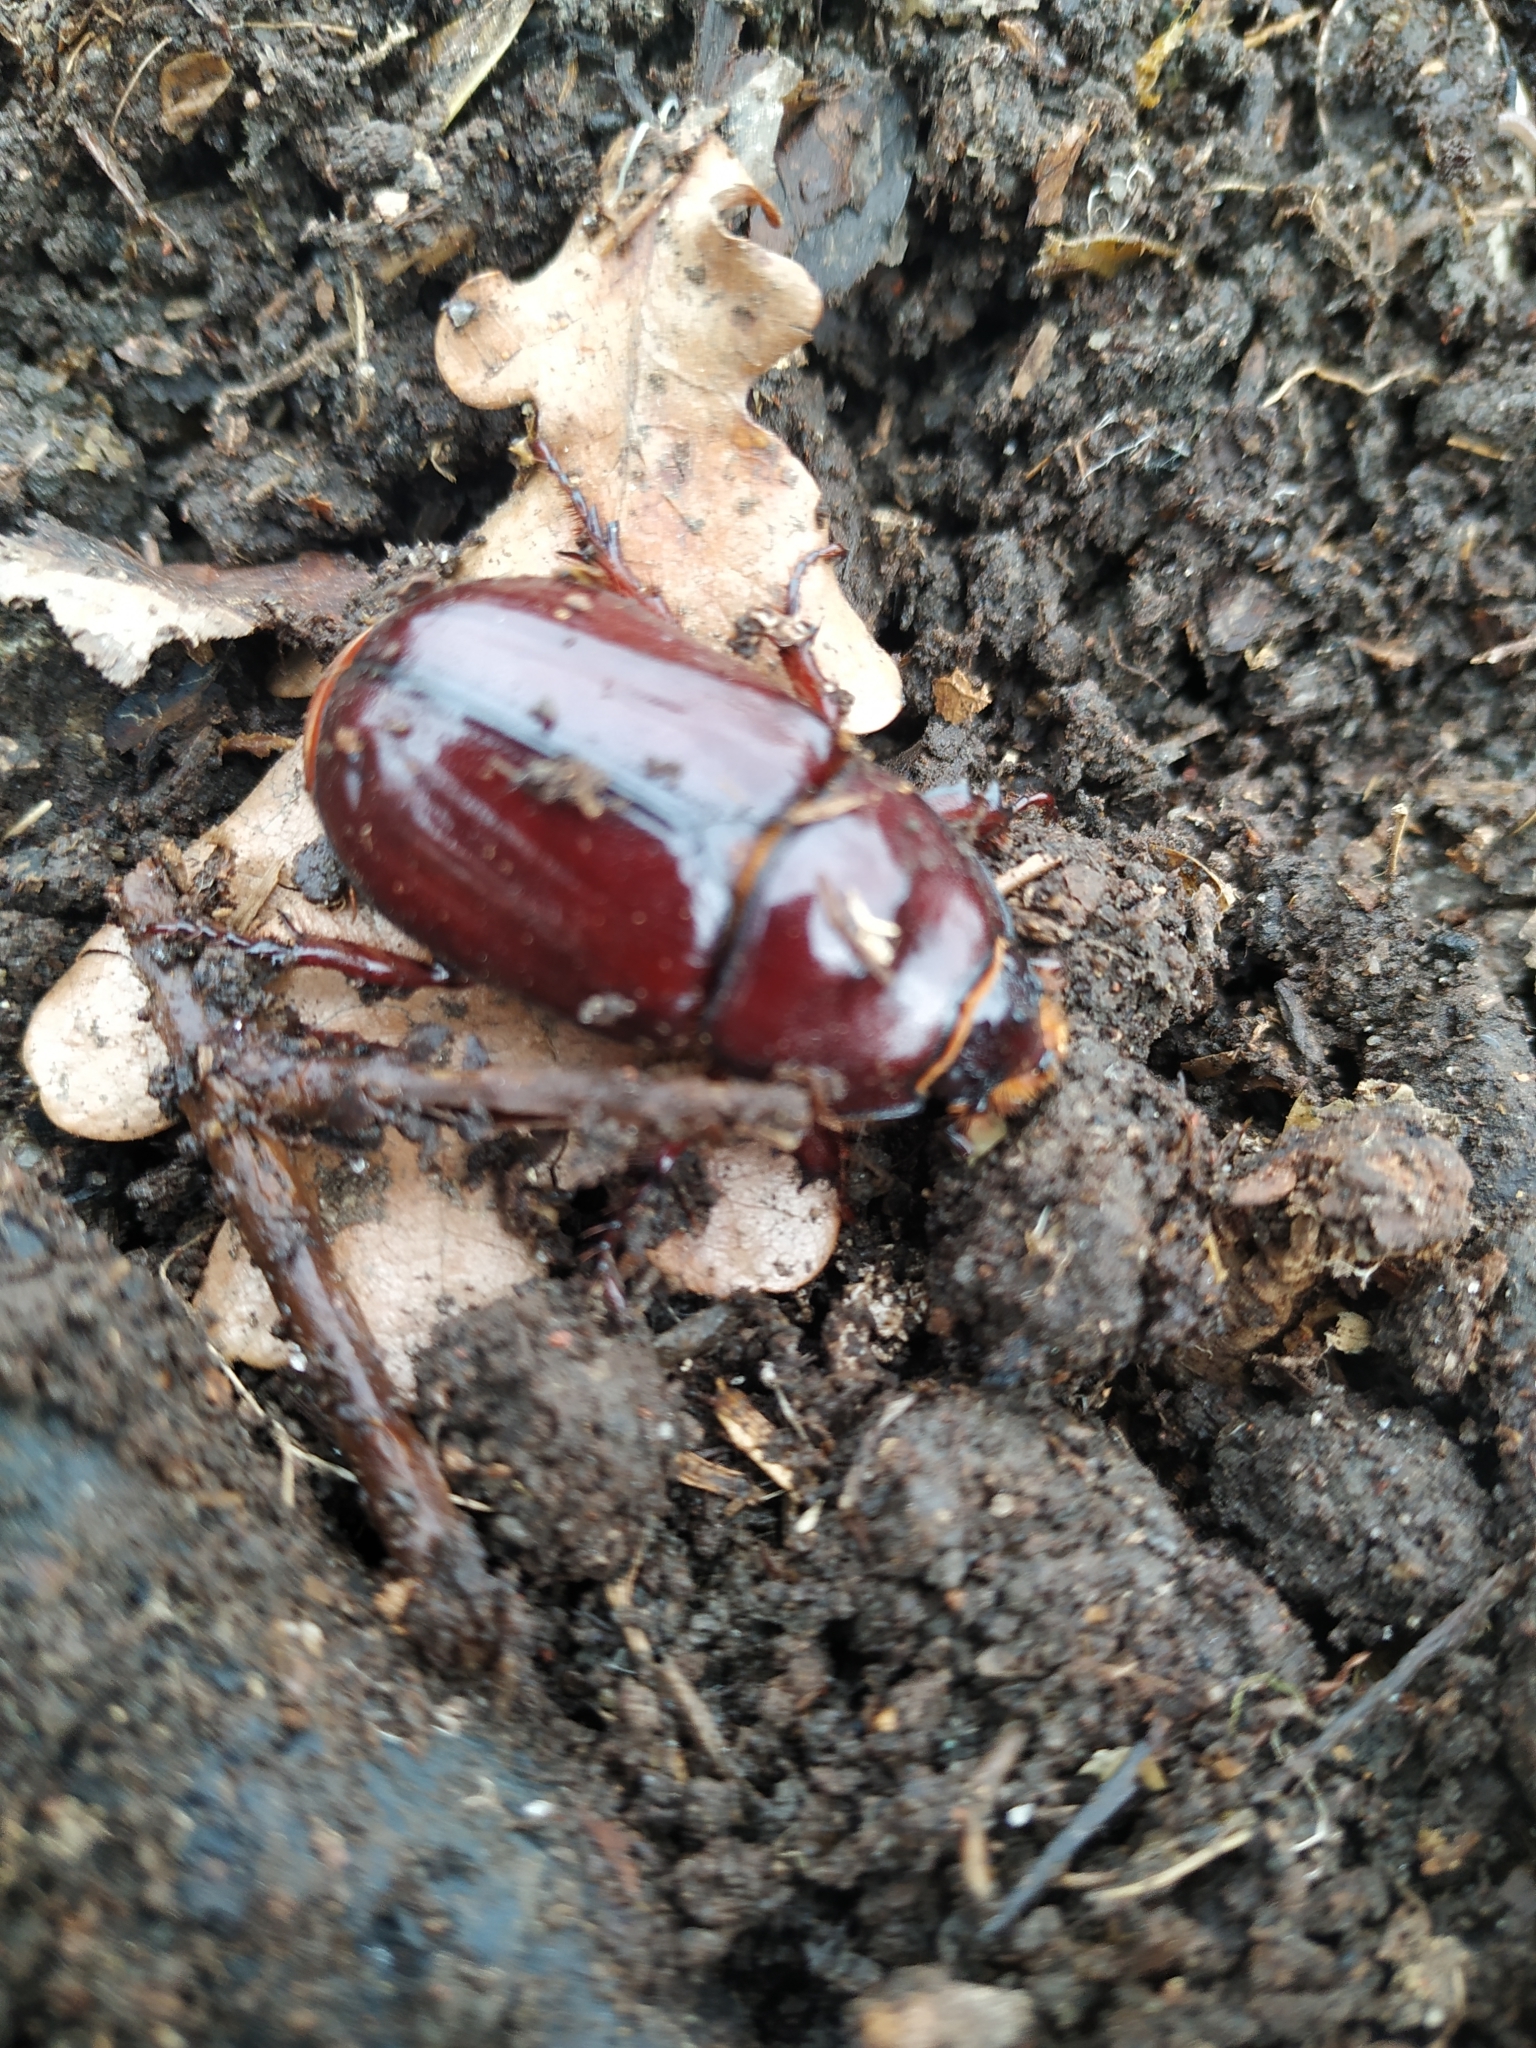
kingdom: Animalia
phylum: Arthropoda
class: Insecta
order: Coleoptera
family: Scarabaeidae
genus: Oryctes
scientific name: Oryctes nasicornis
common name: European rhinoceros beetle
